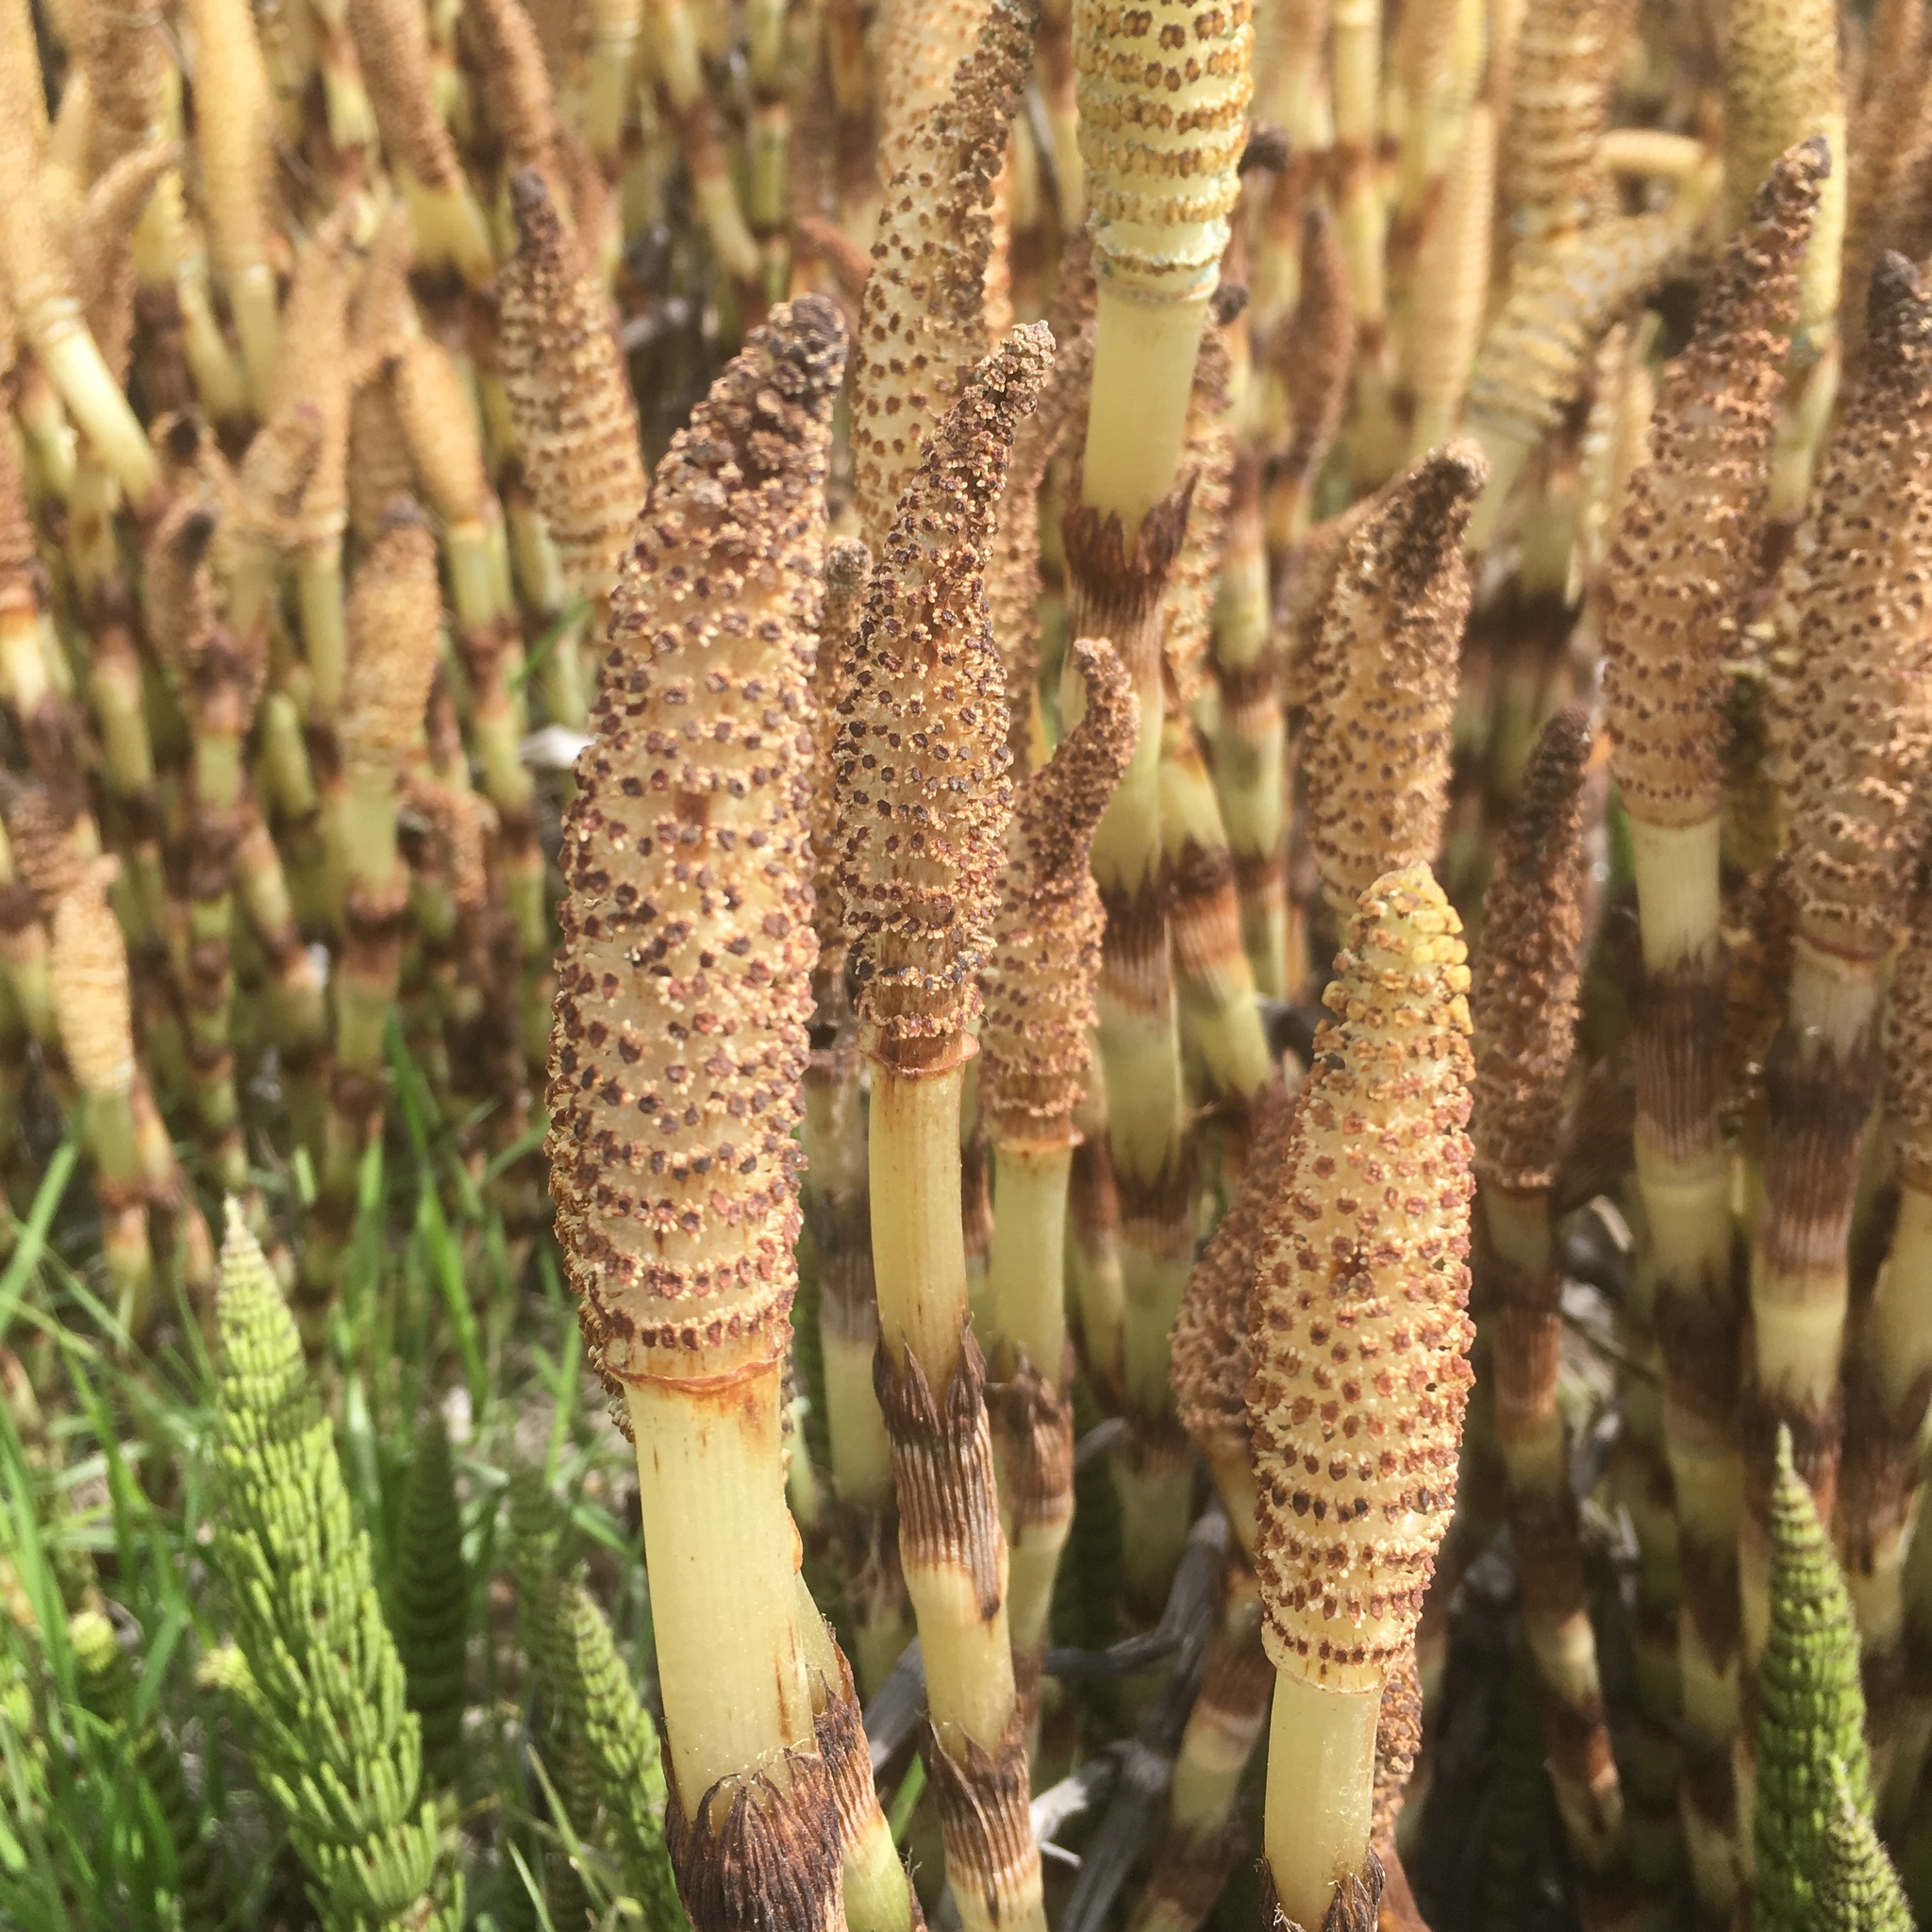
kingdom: Plantae
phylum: Tracheophyta
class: Polypodiopsida
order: Equisetales
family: Equisetaceae
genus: Equisetum
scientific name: Equisetum braunii
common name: Braun's horsetail
